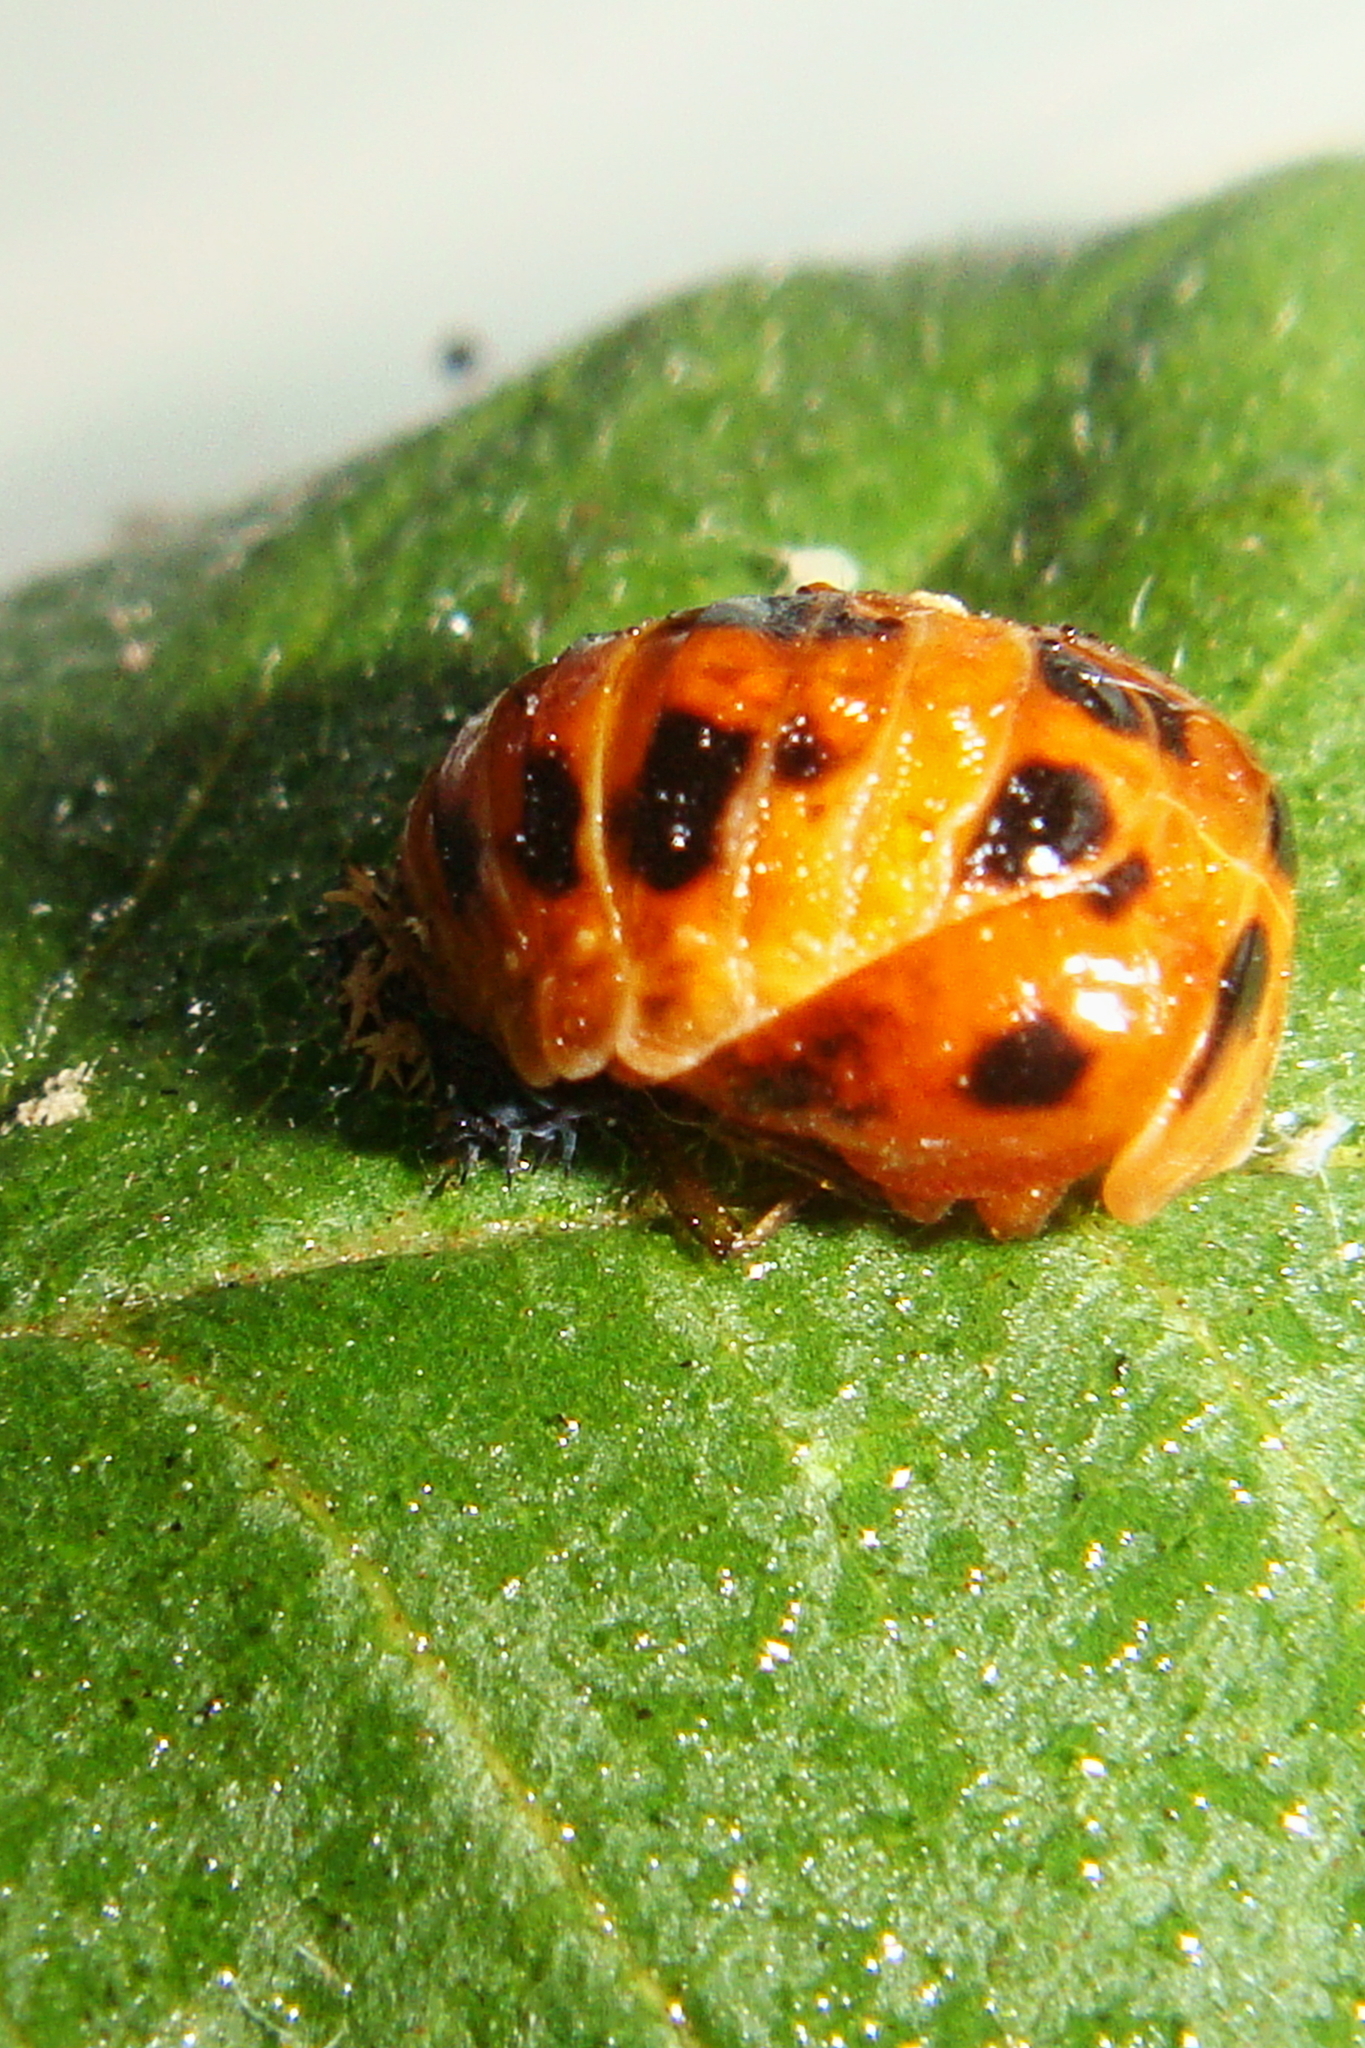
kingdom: Animalia
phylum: Arthropoda
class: Insecta
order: Coleoptera
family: Coccinellidae
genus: Harmonia
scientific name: Harmonia axyridis
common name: Harlequin ladybird
